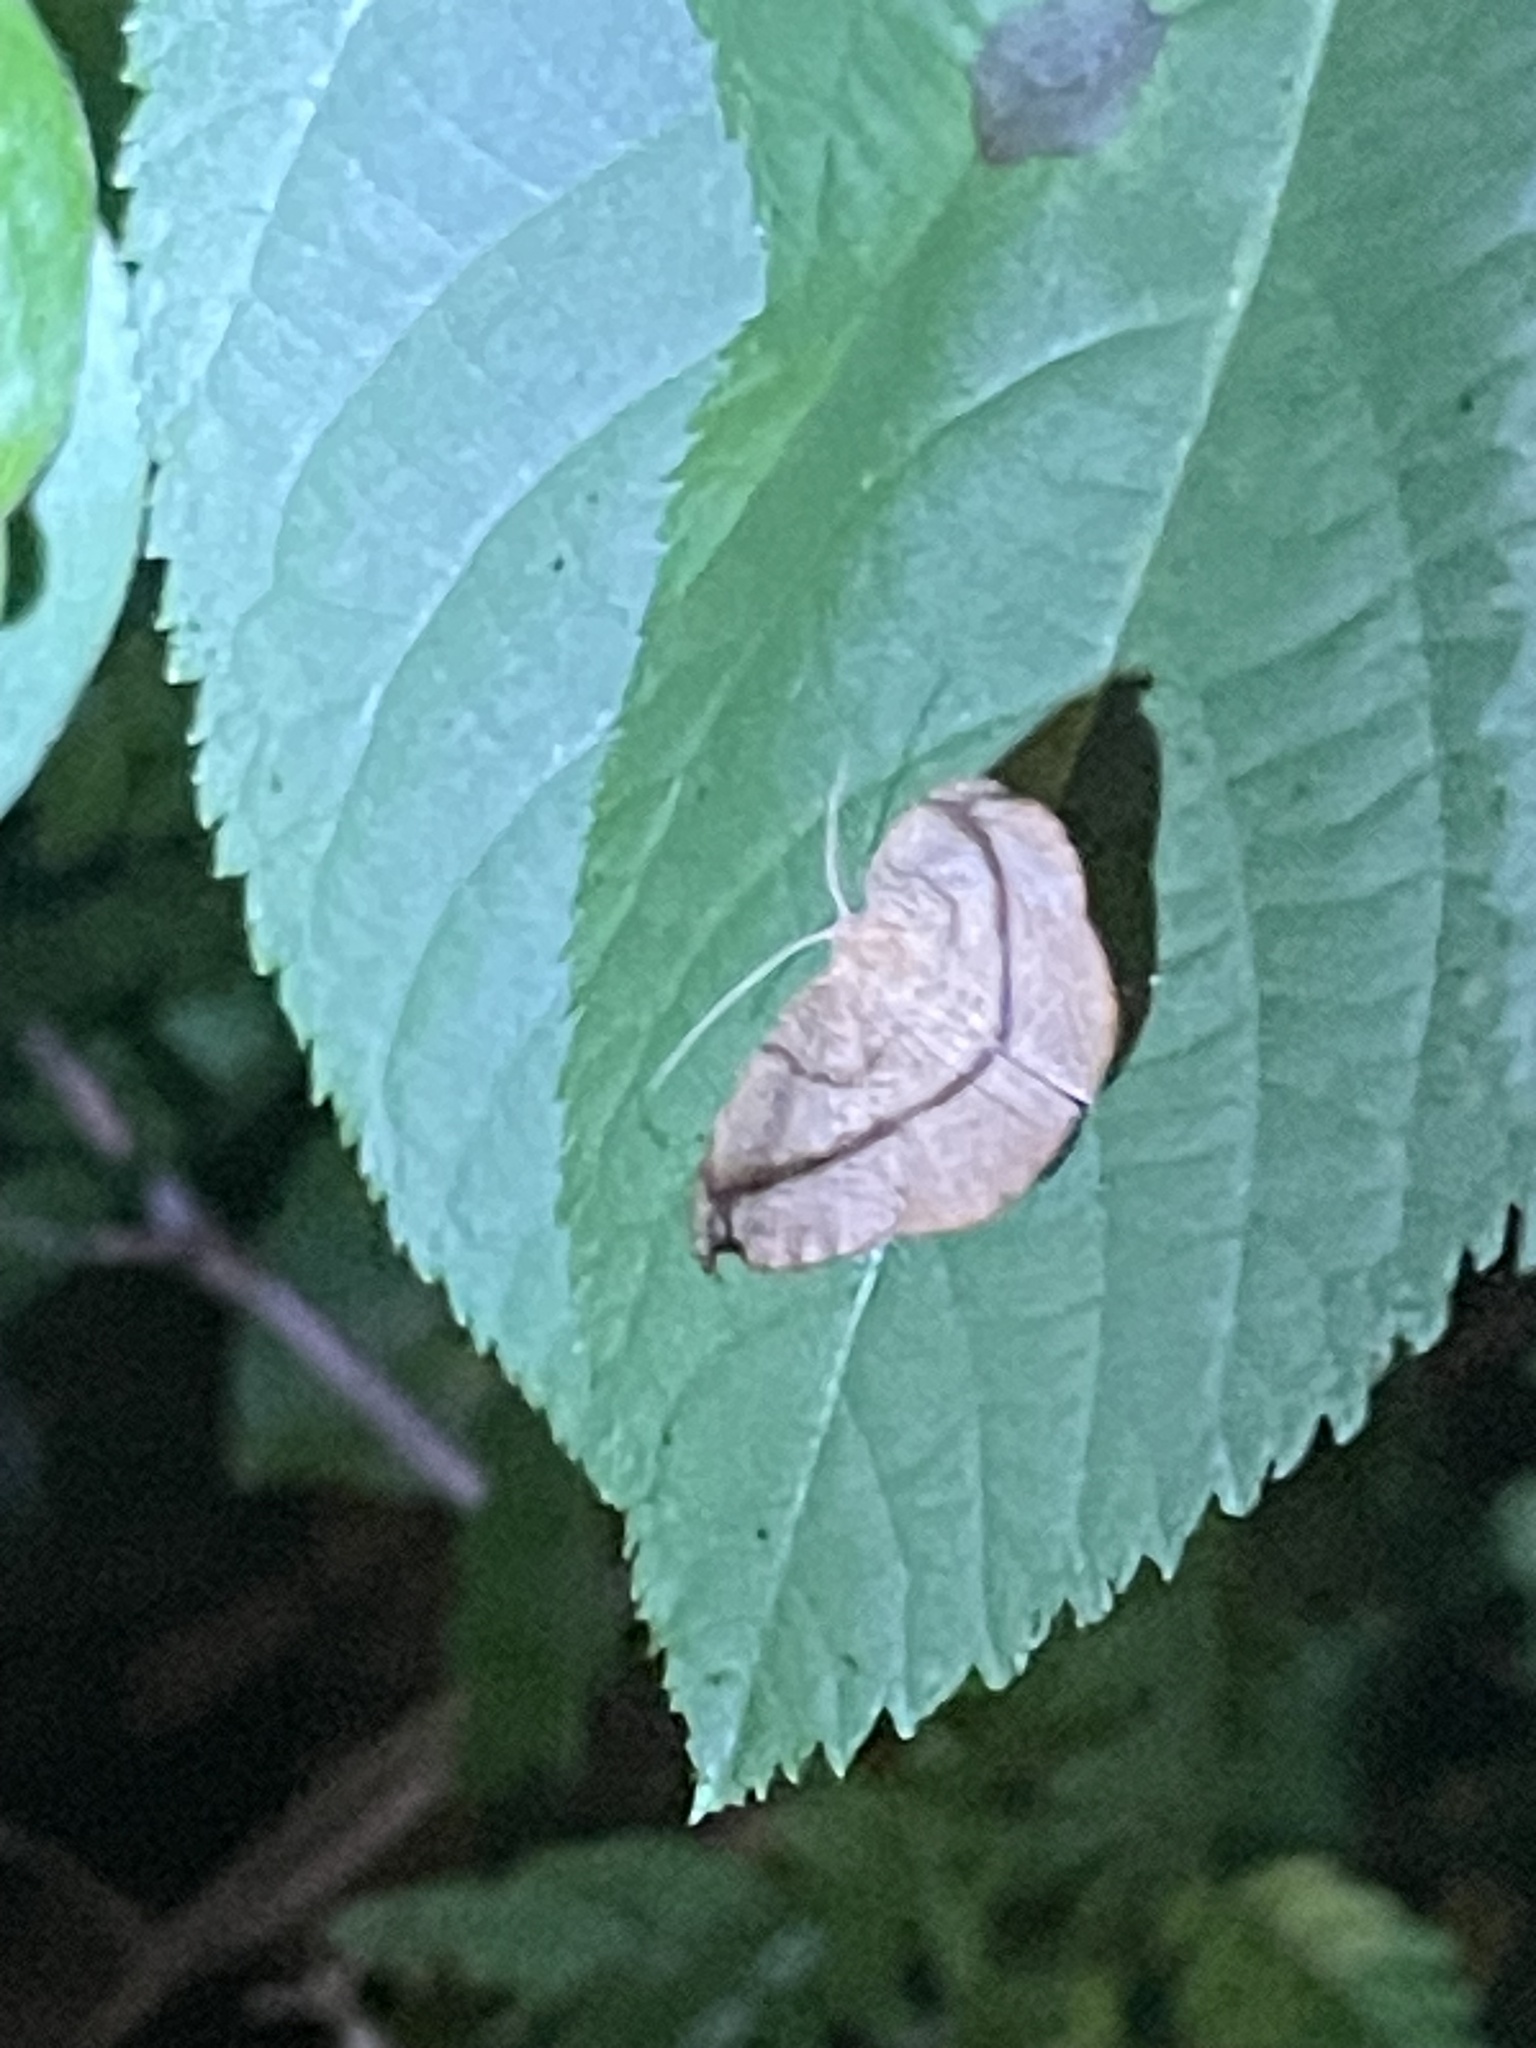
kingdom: Animalia
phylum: Arthropoda
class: Insecta
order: Lepidoptera
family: Geometridae
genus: Patalene
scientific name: Patalene olyzonaria
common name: Juniper geometer moth
